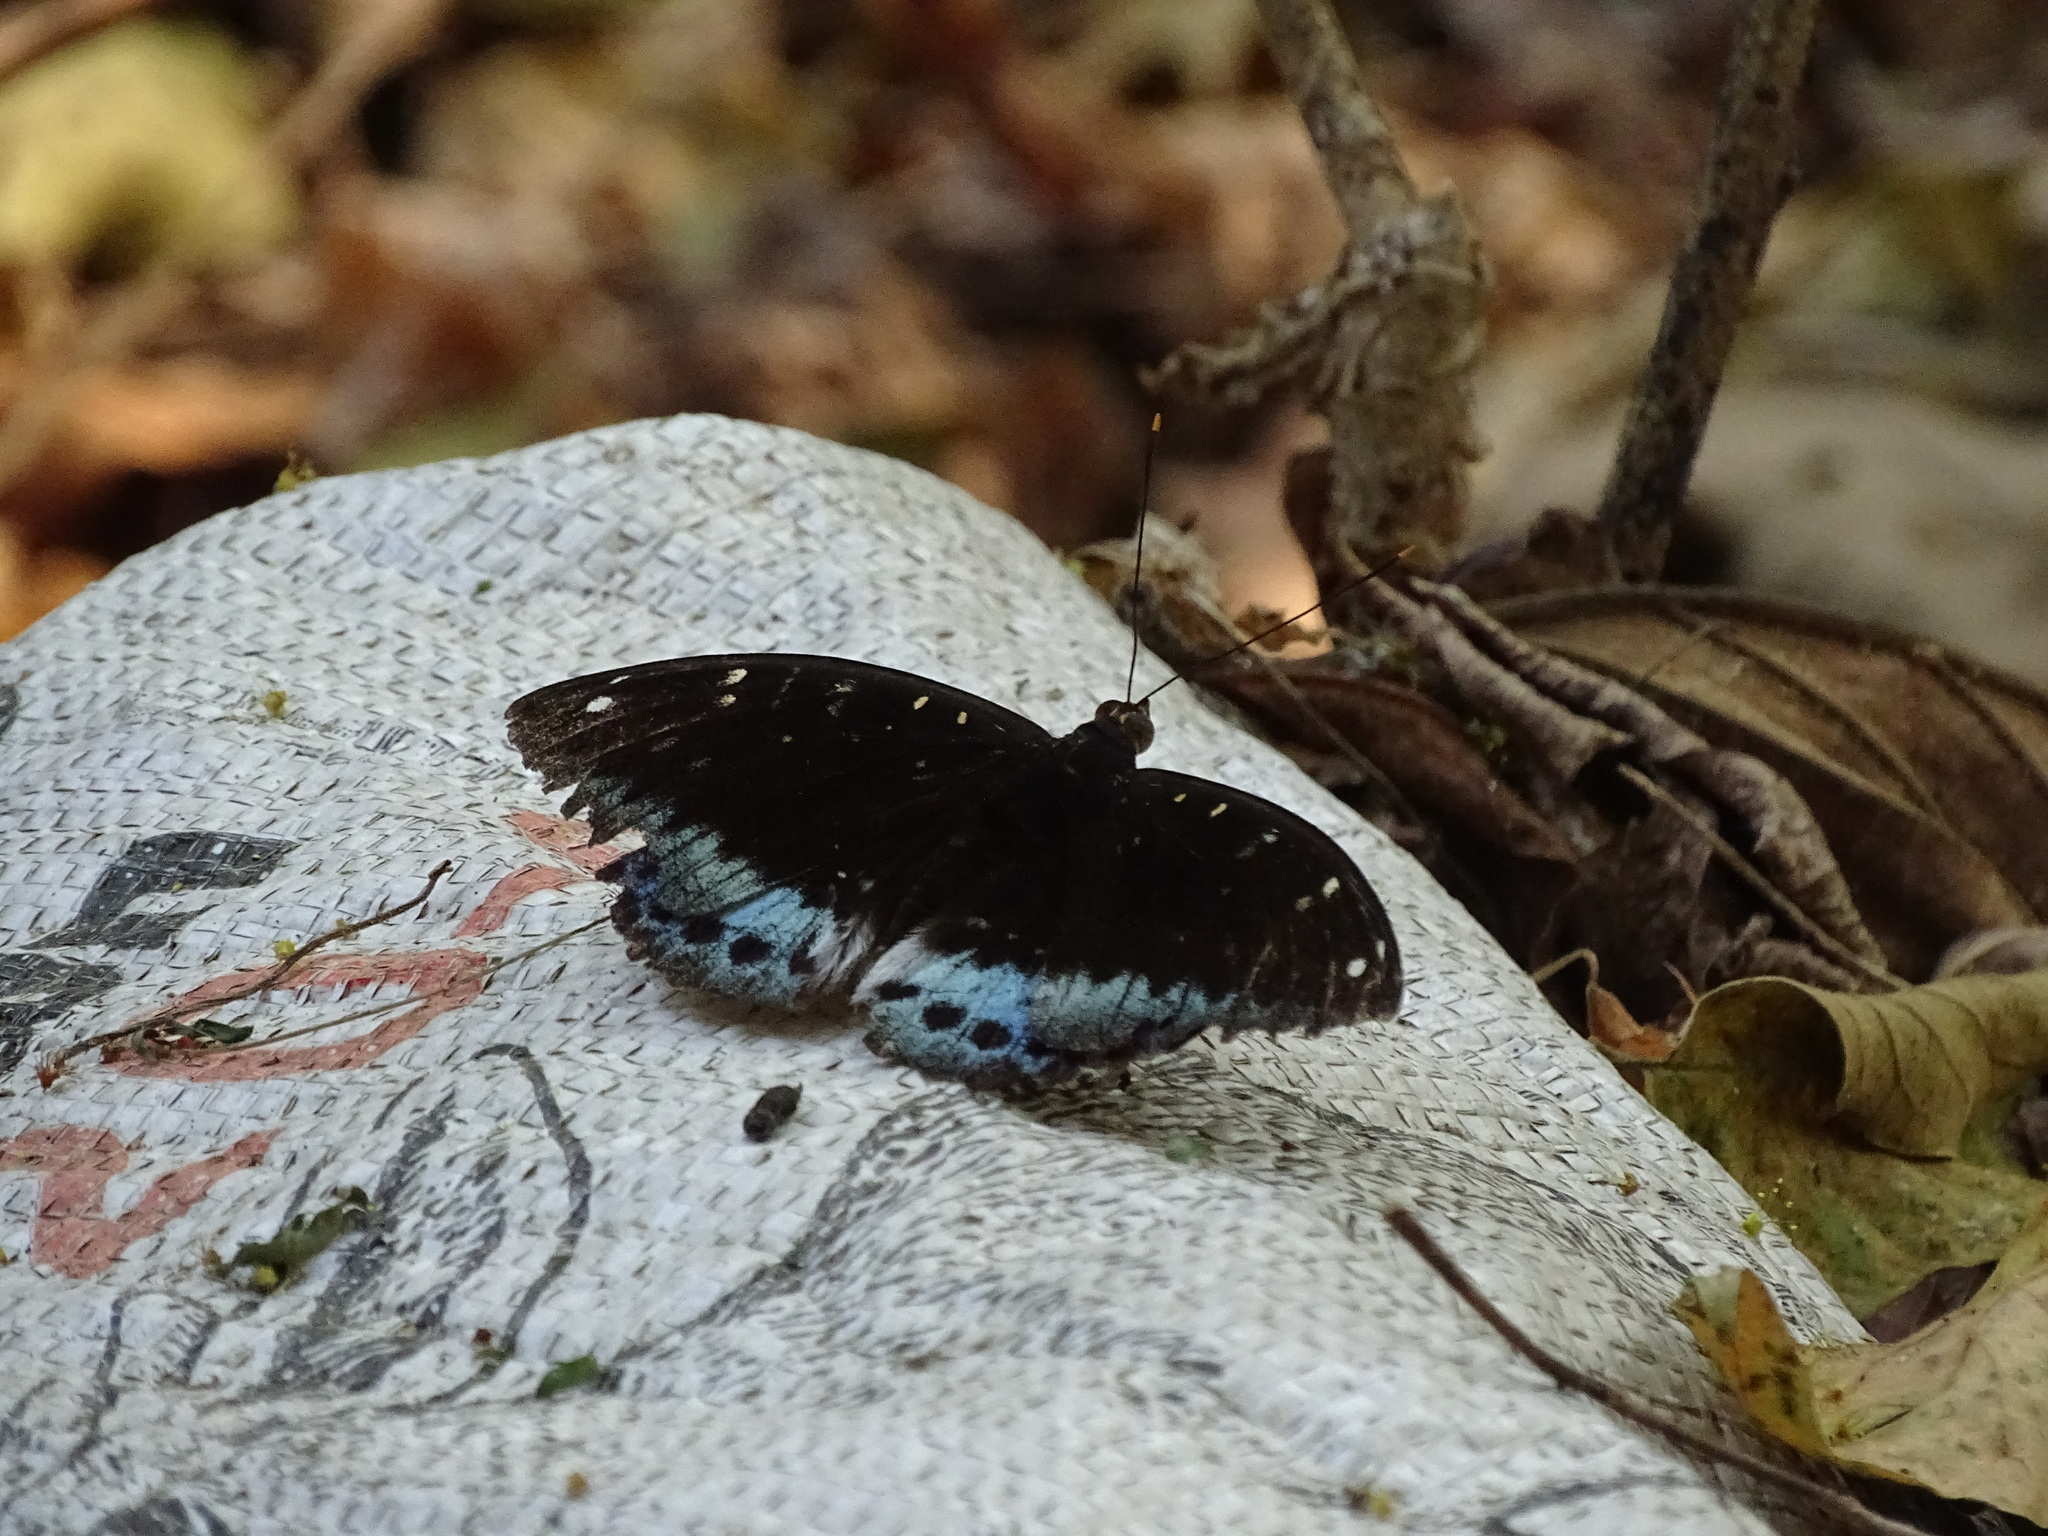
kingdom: Animalia
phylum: Arthropoda
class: Insecta
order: Lepidoptera
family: Nymphalidae
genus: Lexias
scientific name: Lexias pardalis
